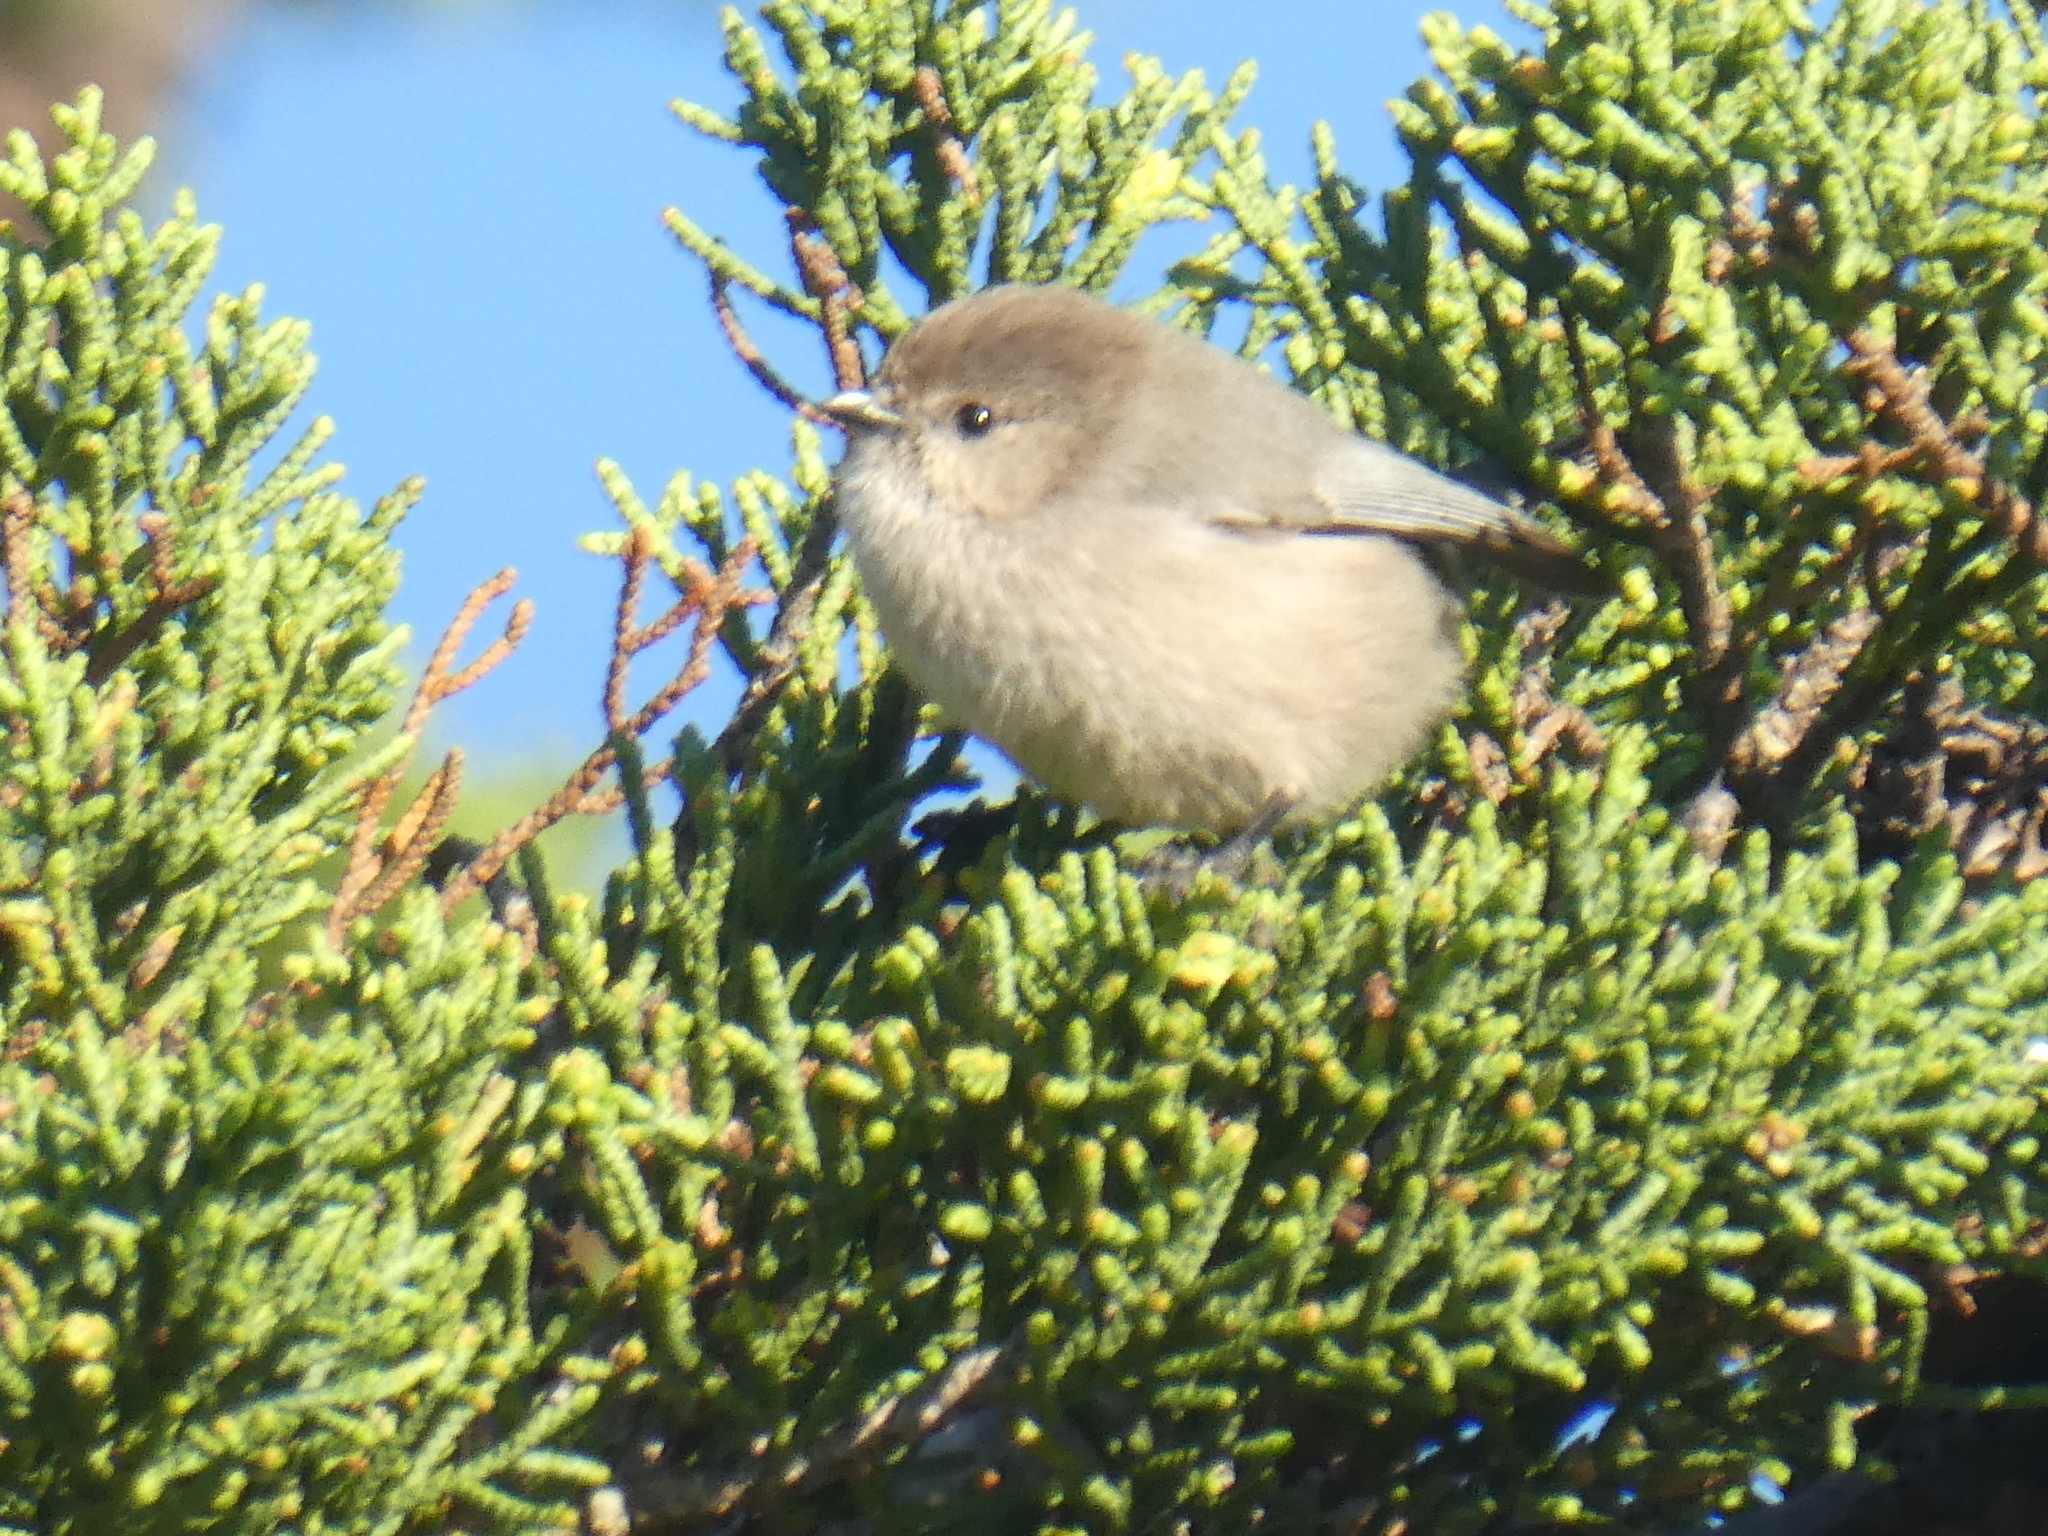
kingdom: Animalia
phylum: Chordata
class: Aves
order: Passeriformes
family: Aegithalidae
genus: Psaltriparus
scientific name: Psaltriparus minimus
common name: American bushtit
